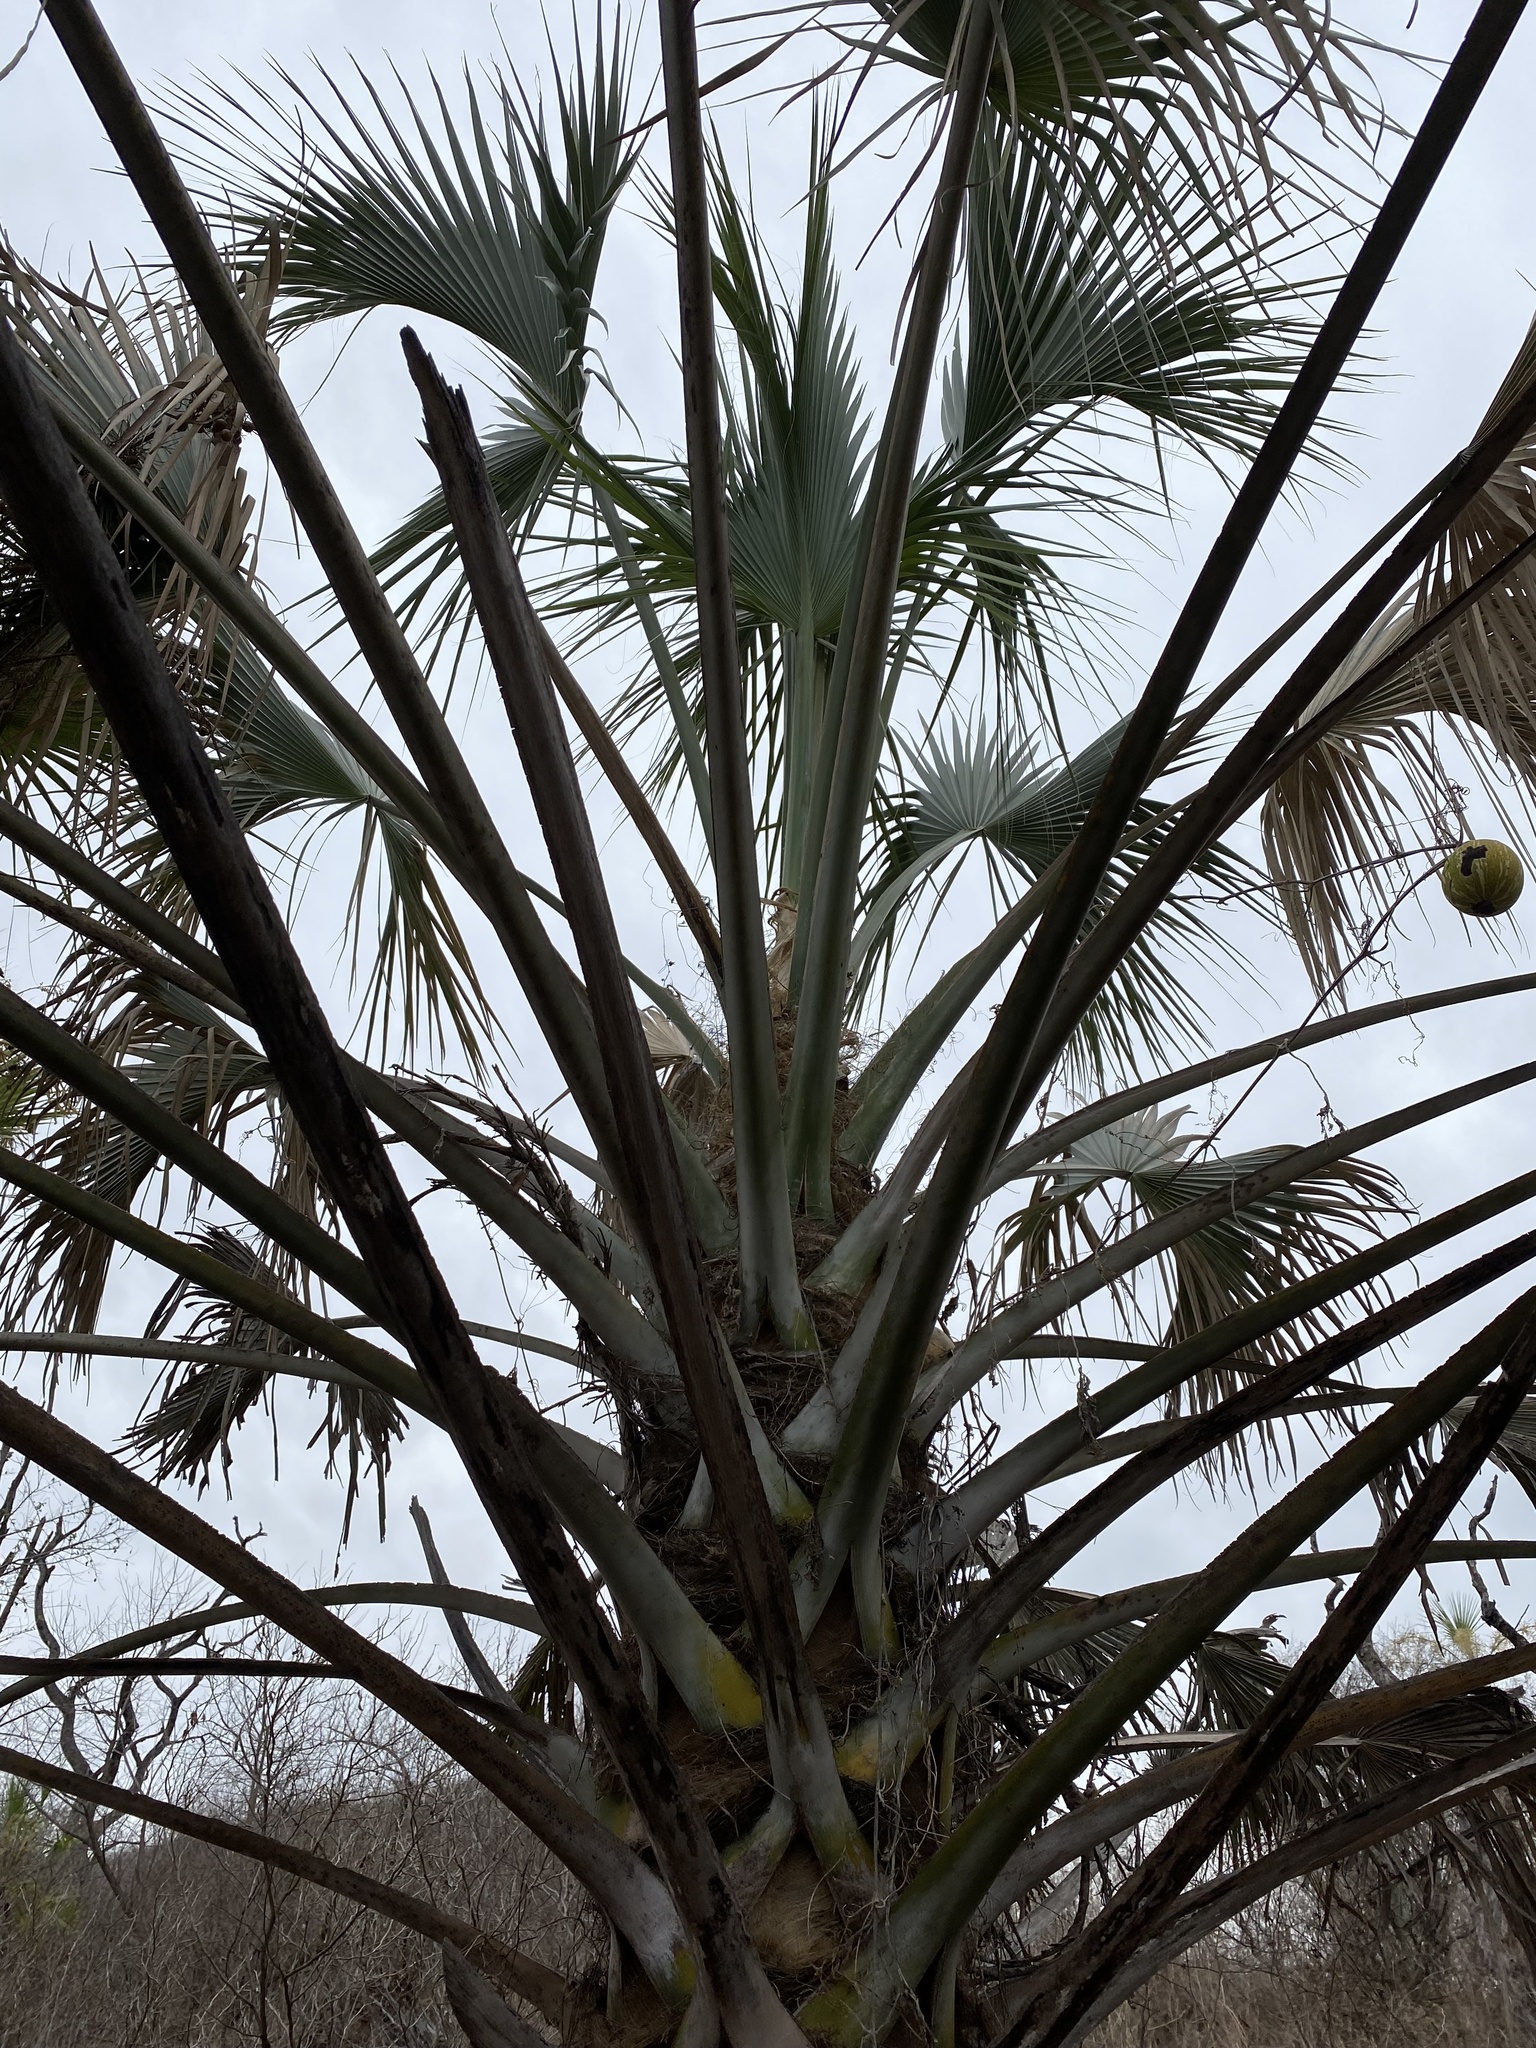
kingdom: Plantae
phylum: Tracheophyta
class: Liliopsida
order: Arecales
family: Arecaceae
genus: Sabal
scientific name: Sabal uresana
